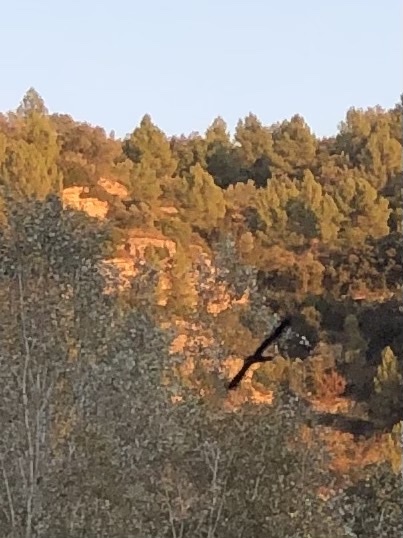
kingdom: Animalia
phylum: Chordata
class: Aves
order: Suliformes
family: Phalacrocoracidae
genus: Phalacrocorax
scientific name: Phalacrocorax carbo
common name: Great cormorant
